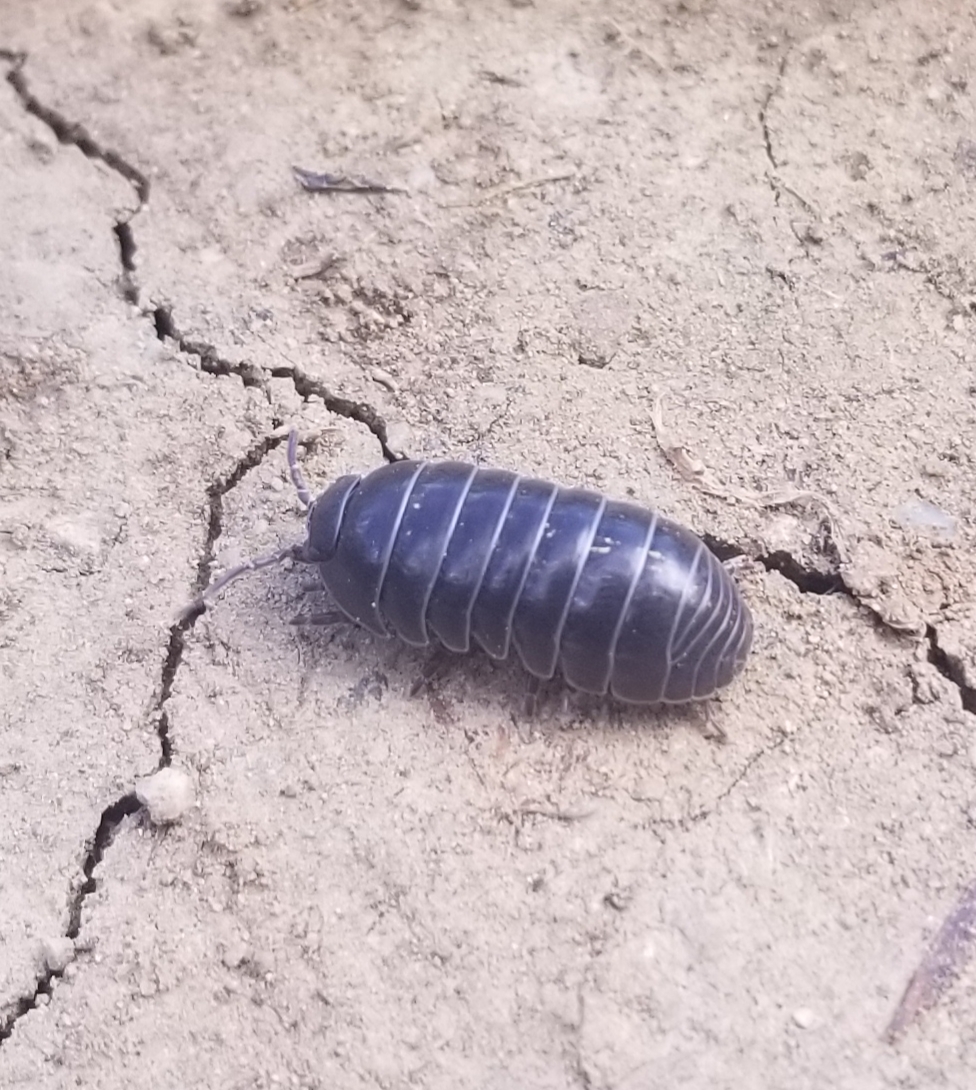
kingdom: Animalia
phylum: Arthropoda
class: Malacostraca
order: Isopoda
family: Armadillidiidae
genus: Armadillidium
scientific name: Armadillidium vulgare
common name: Common pill woodlouse
